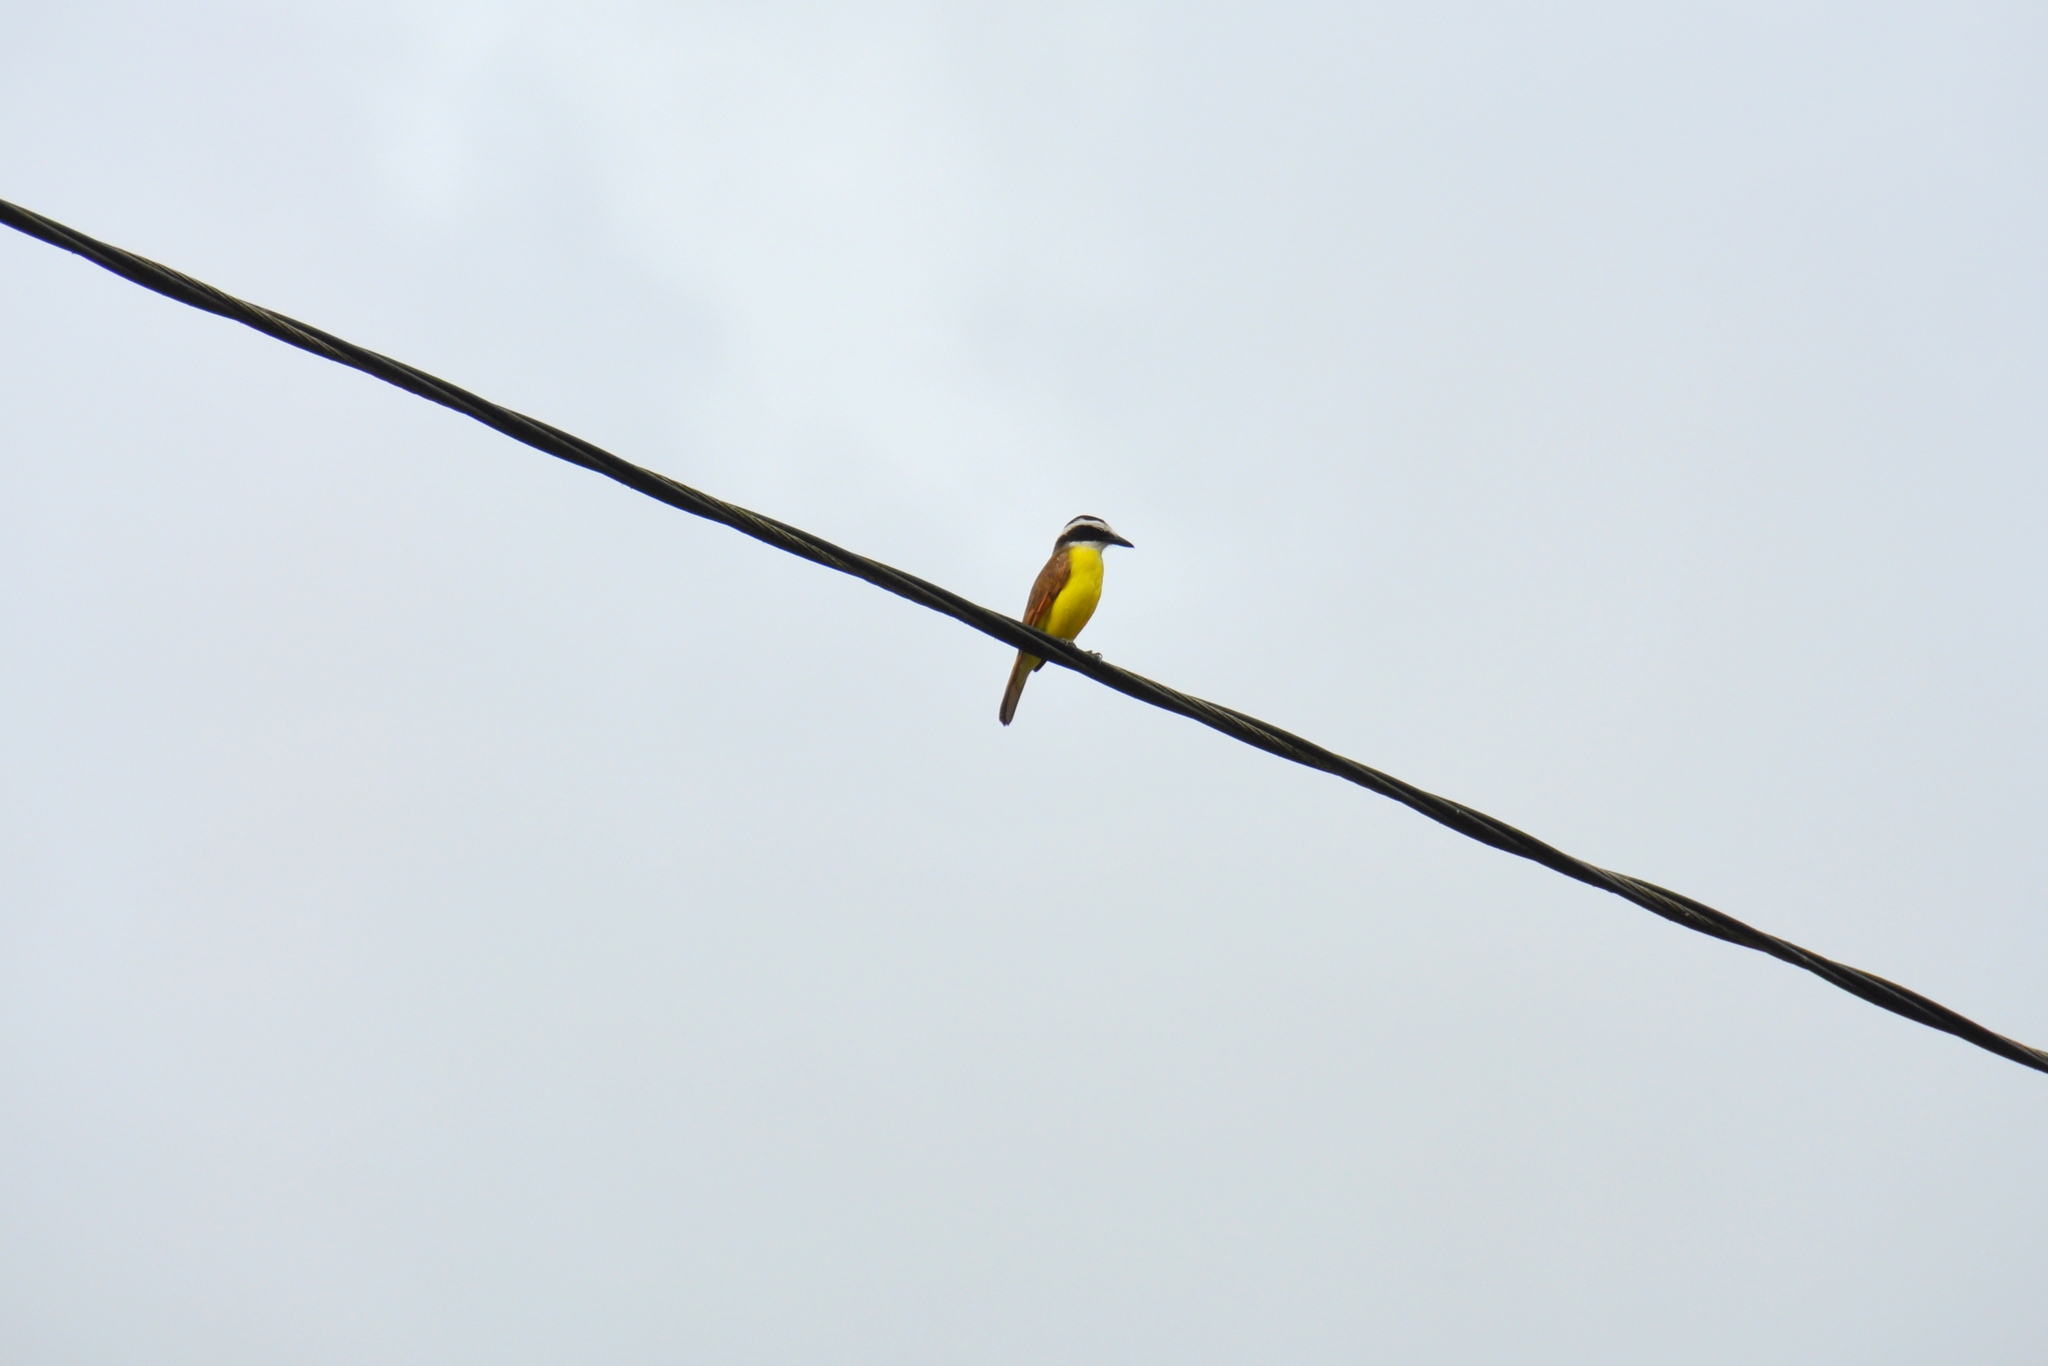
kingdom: Animalia
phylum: Chordata
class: Aves
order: Passeriformes
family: Tyrannidae
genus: Pitangus
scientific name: Pitangus sulphuratus
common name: Great kiskadee
